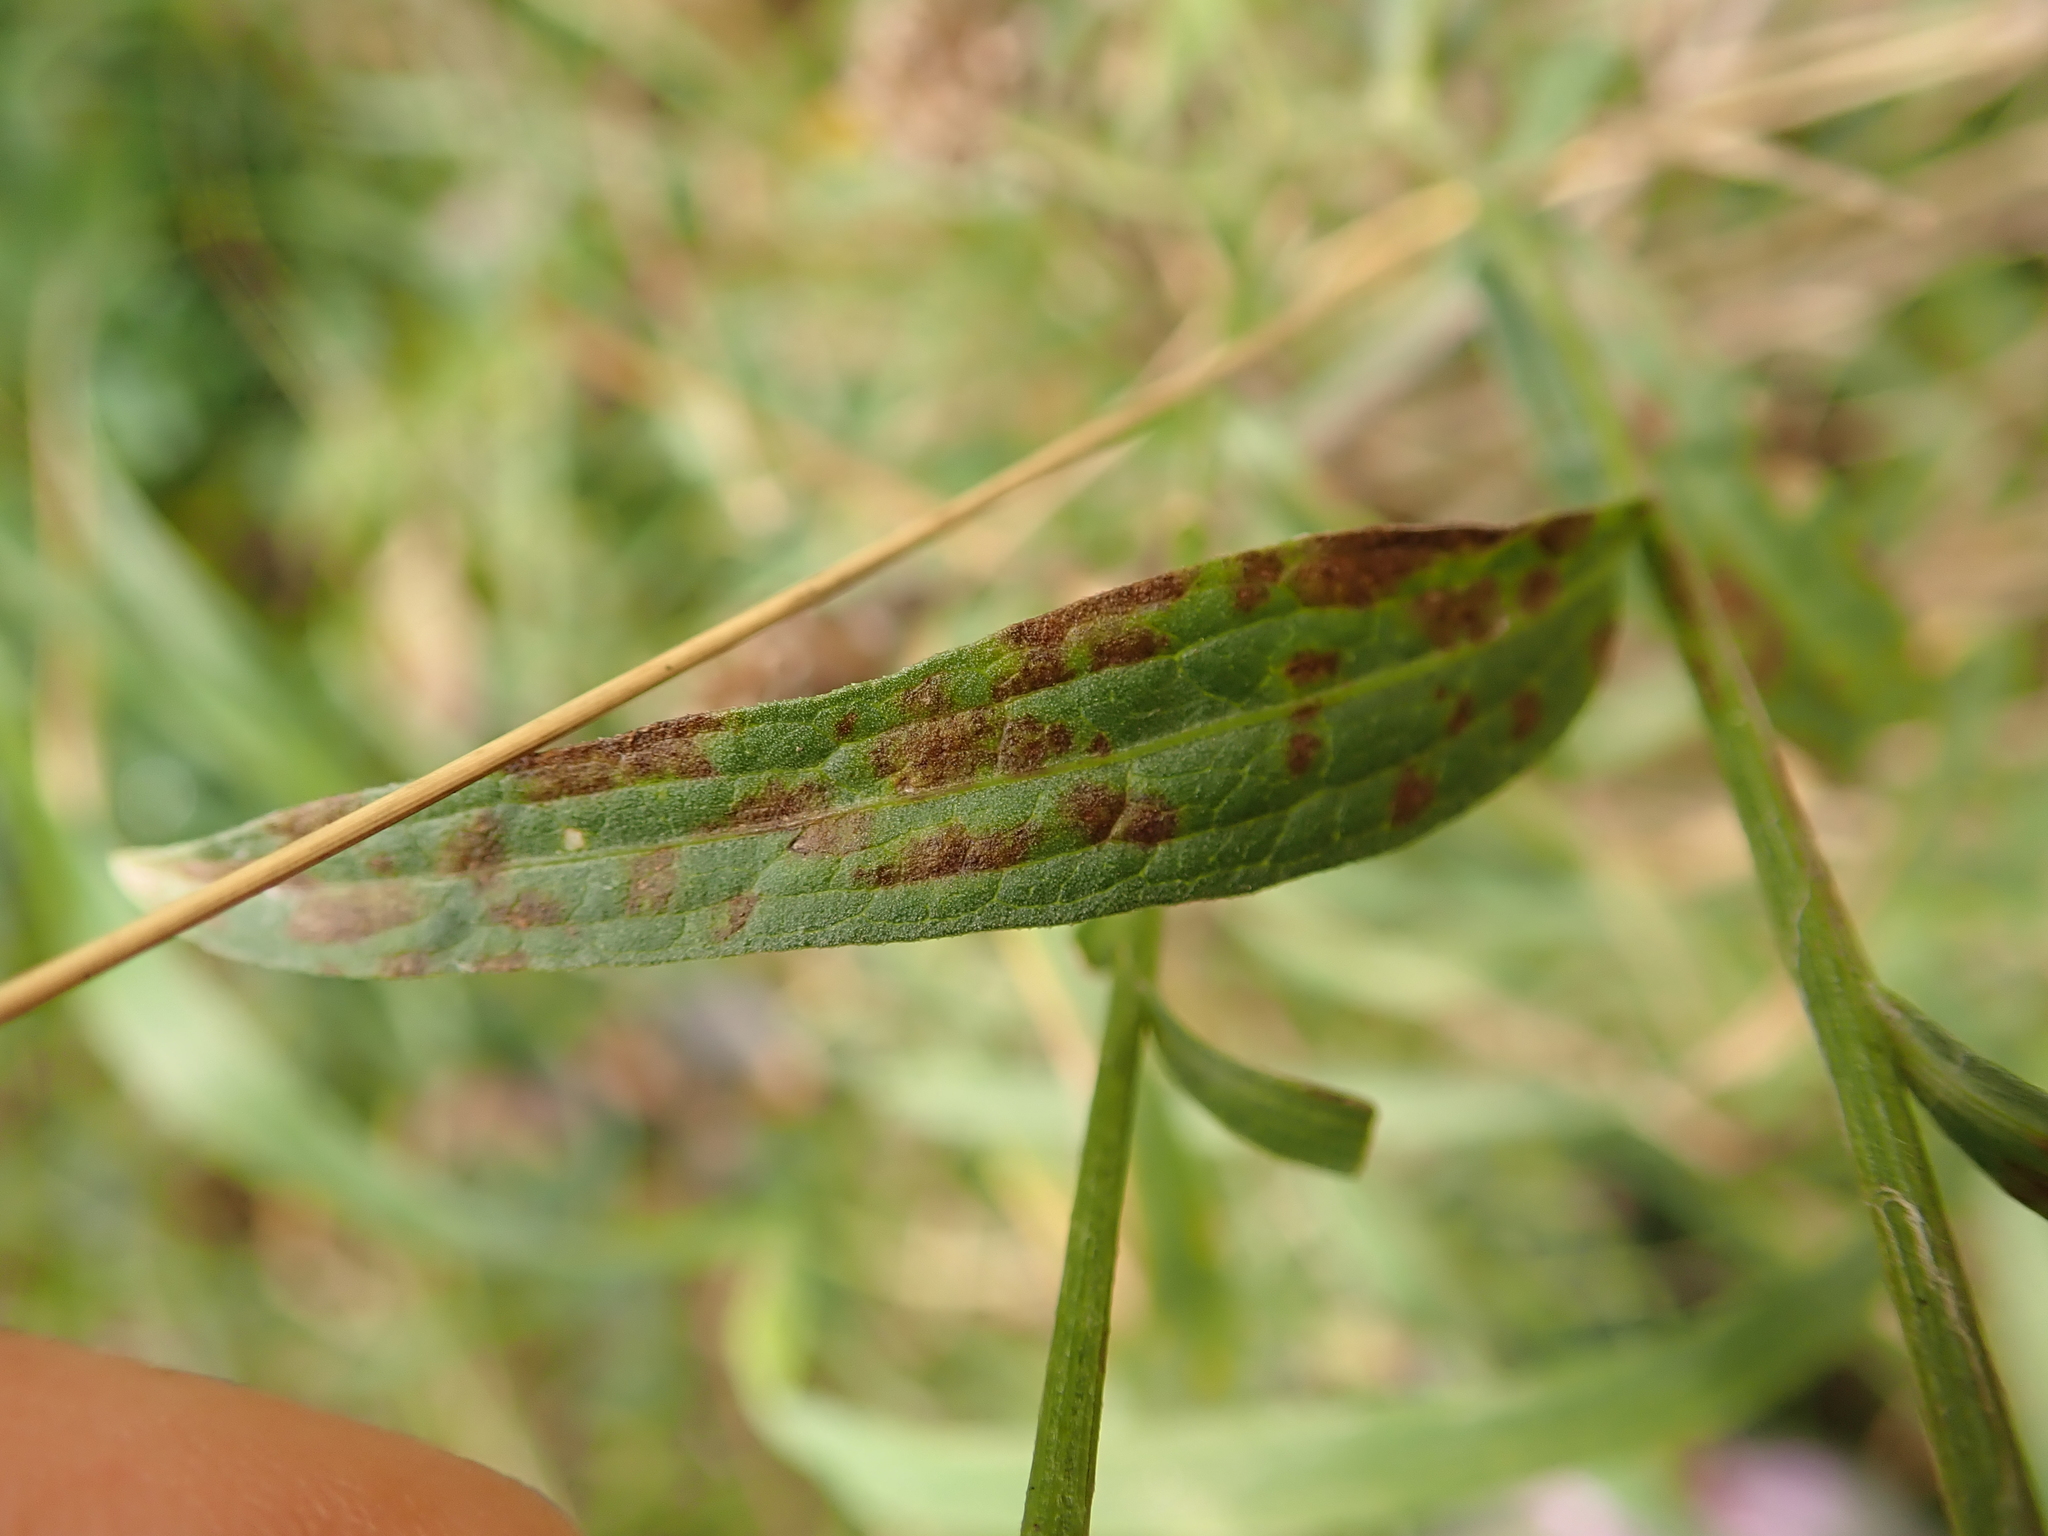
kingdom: Plantae
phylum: Tracheophyta
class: Magnoliopsida
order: Asterales
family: Asteraceae
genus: Centaurea
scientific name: Centaurea jacea
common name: Brown knapweed
